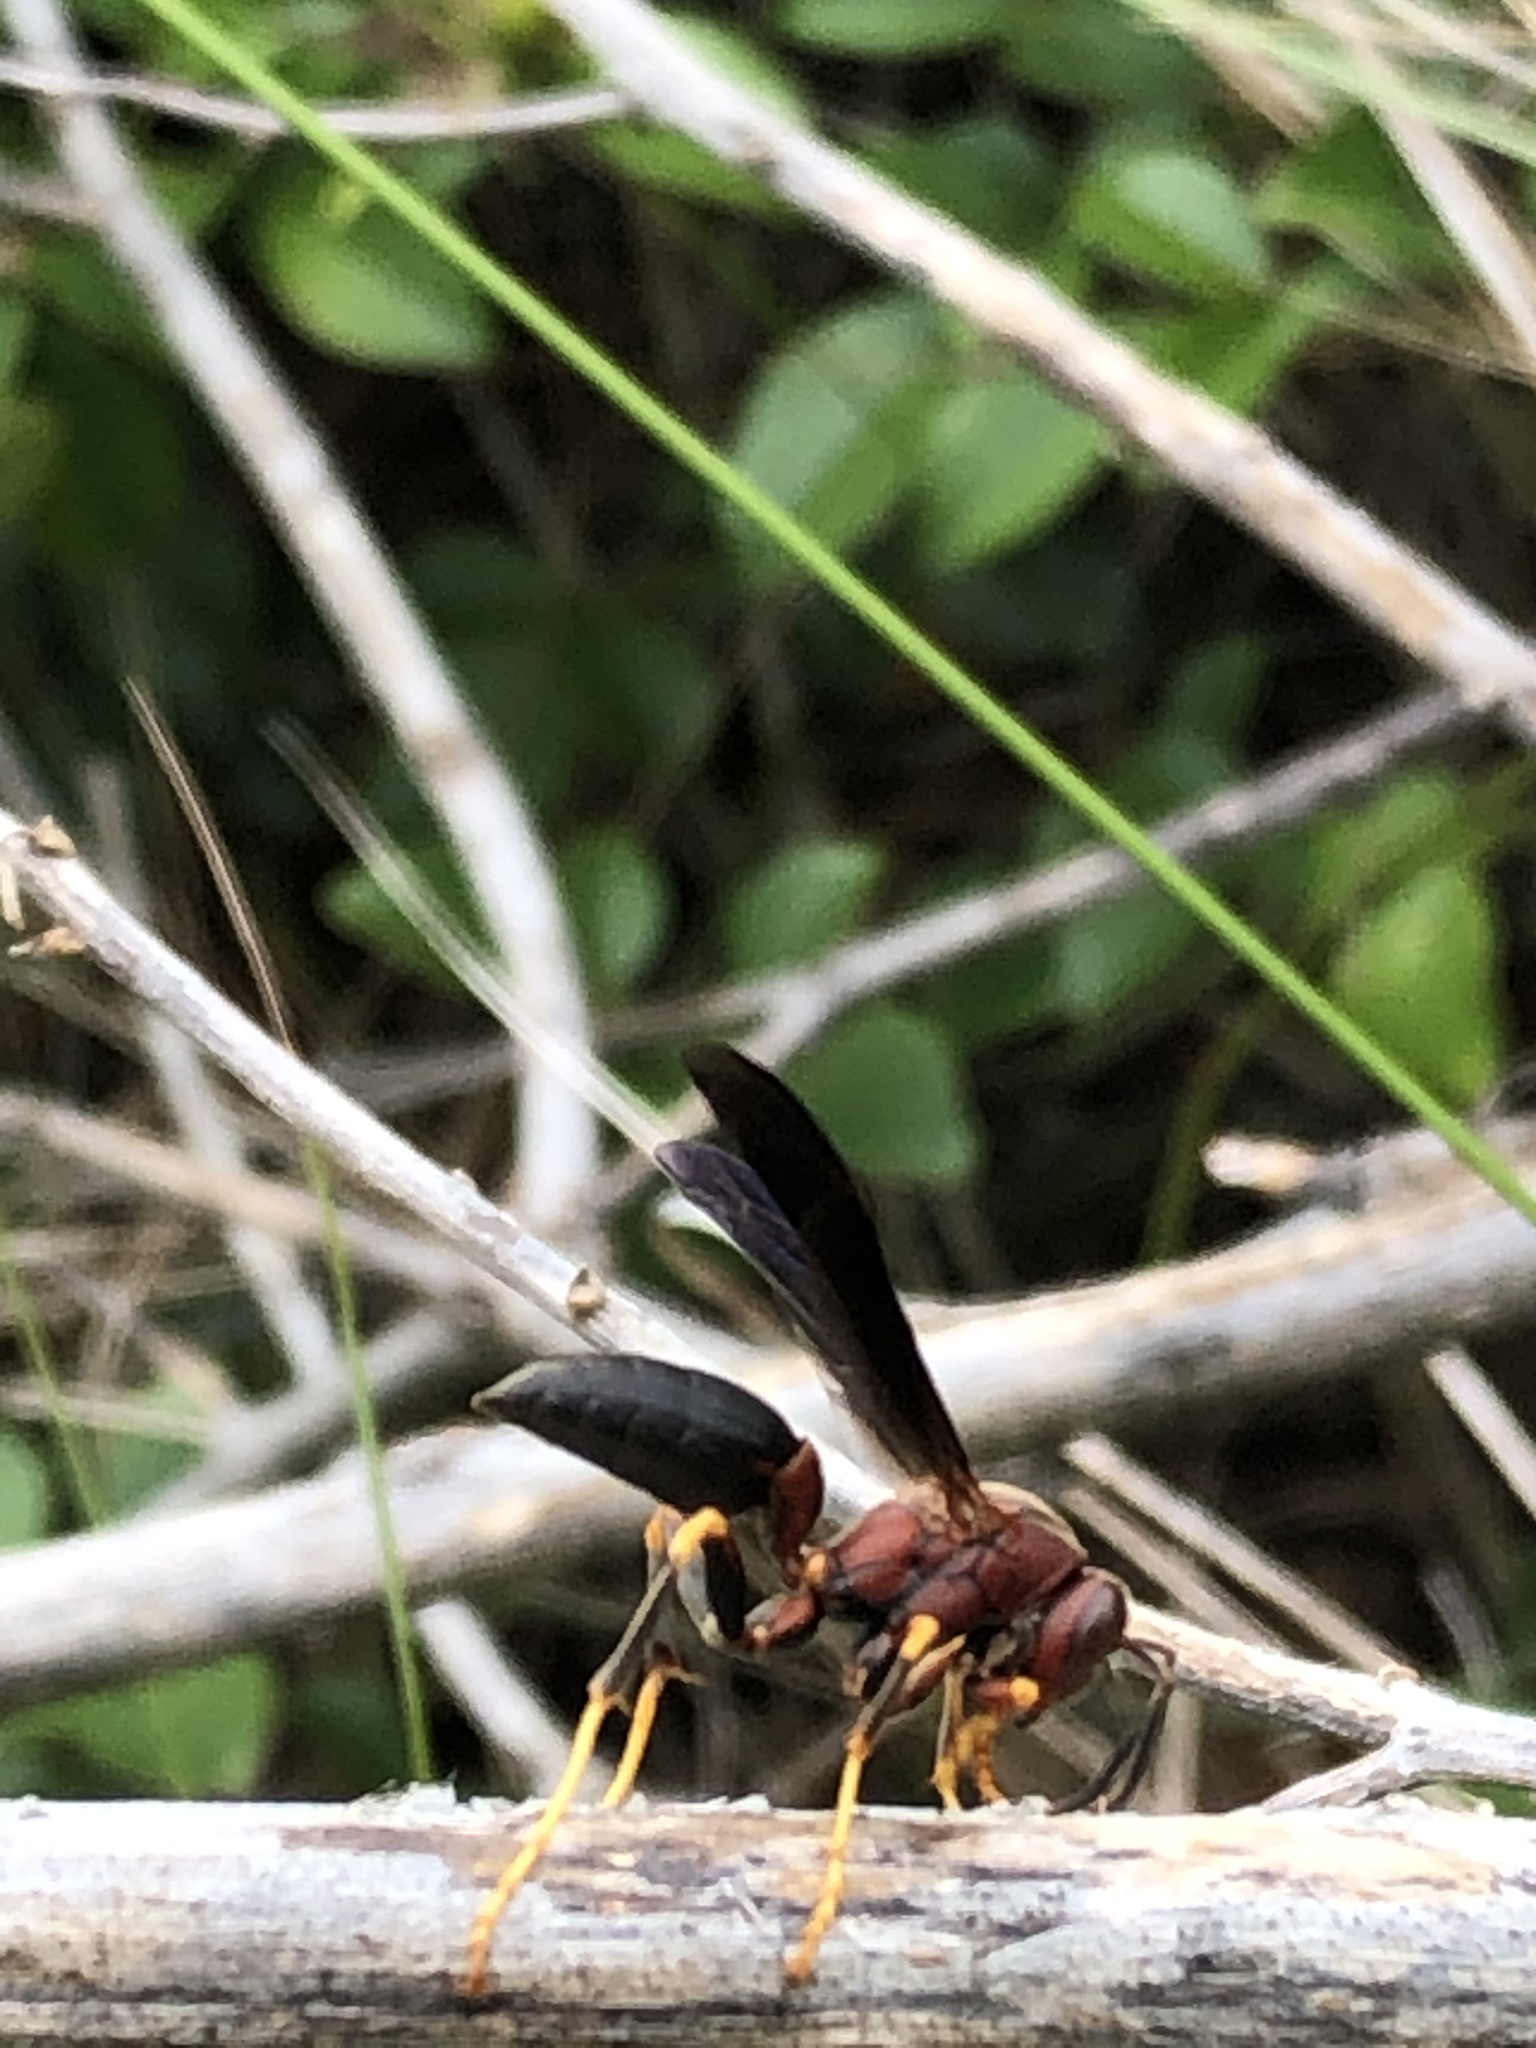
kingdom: Animalia
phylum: Arthropoda
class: Insecta
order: Hymenoptera
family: Eumenidae
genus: Polistes
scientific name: Polistes metricus
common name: Metric paper wasp
